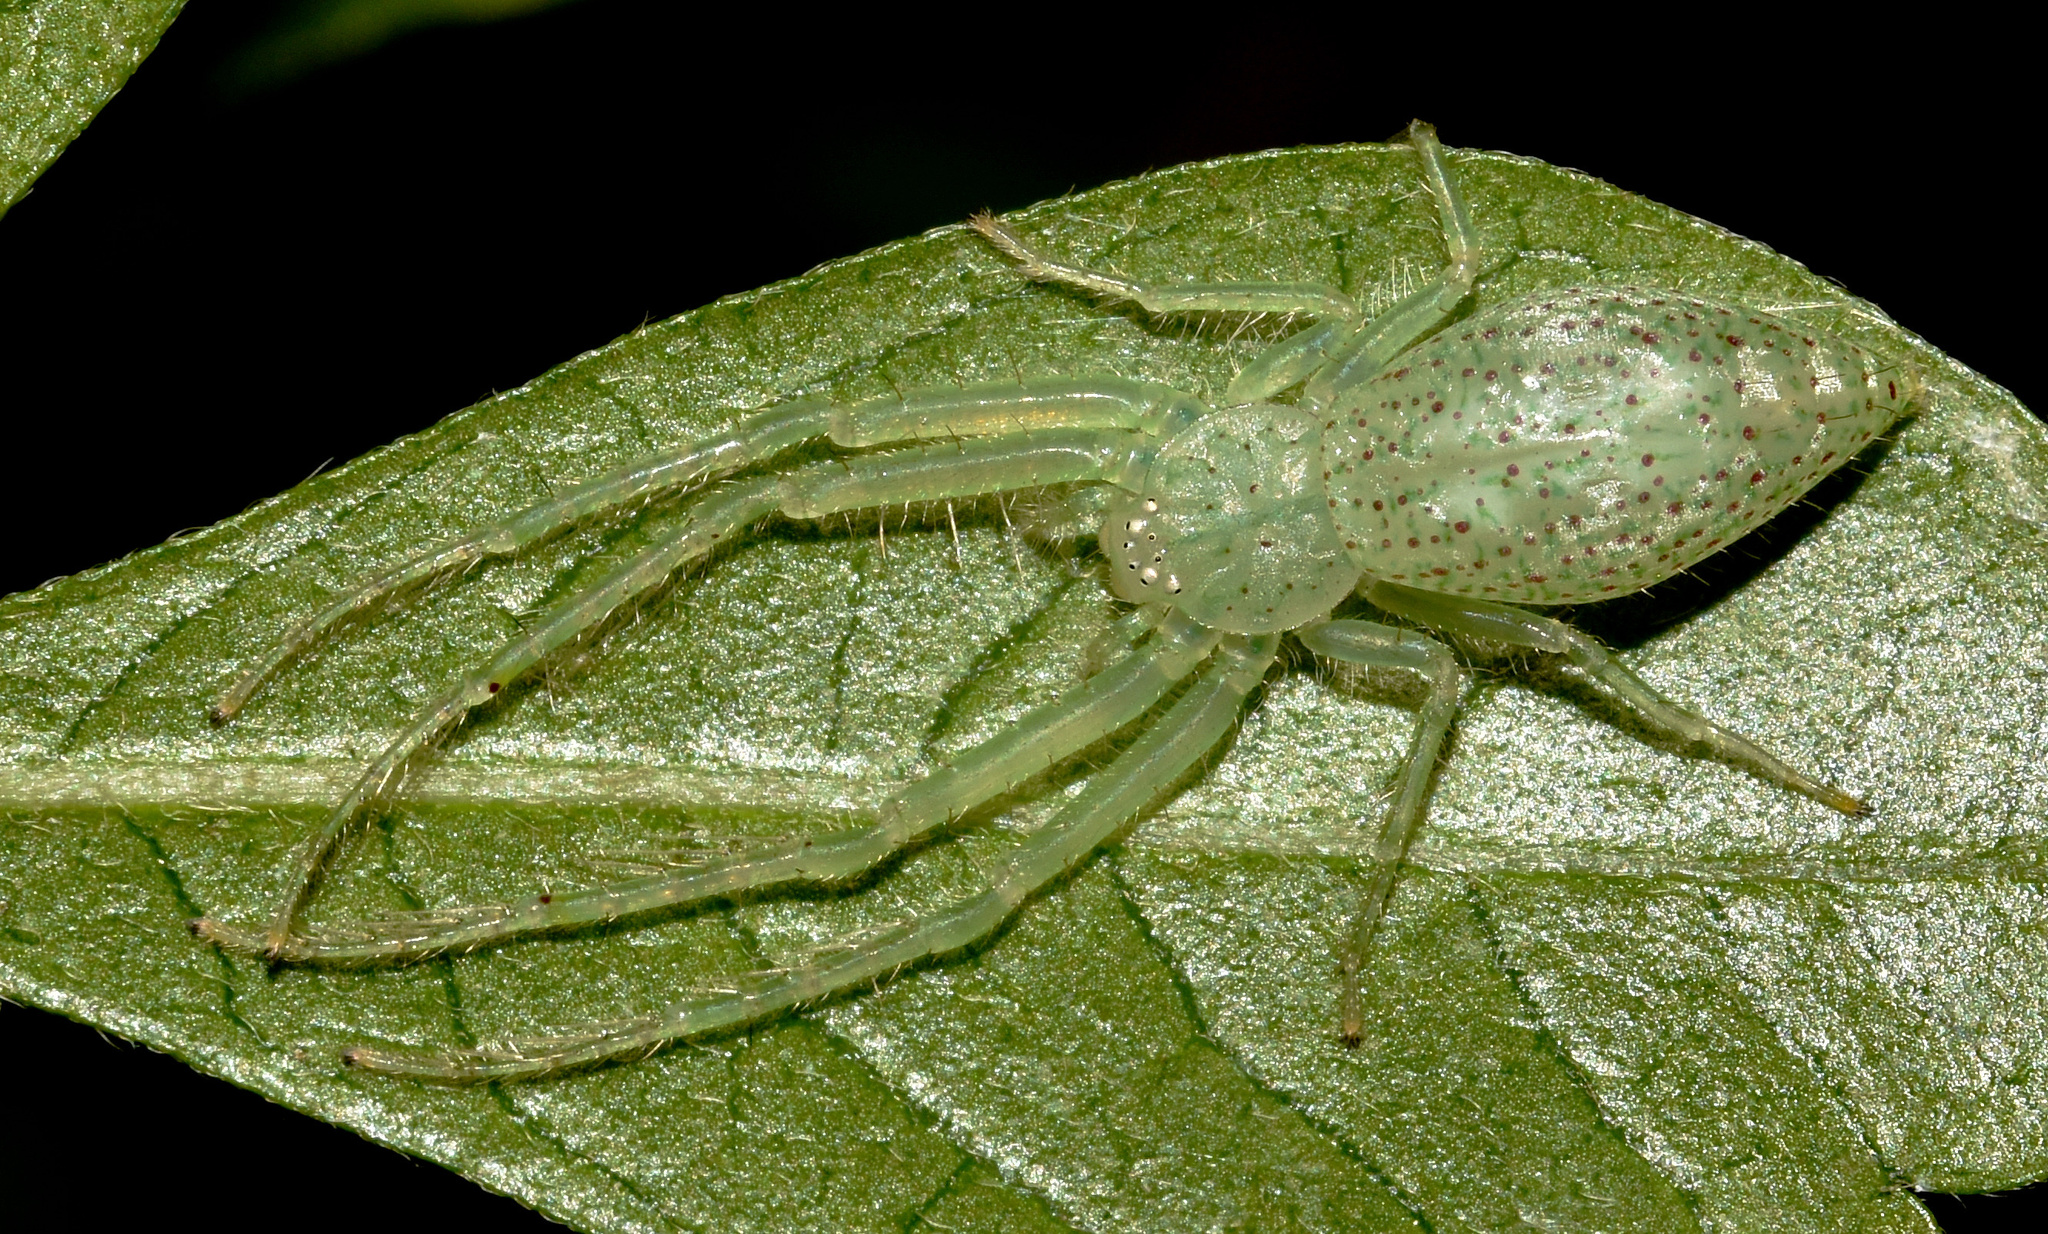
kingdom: Animalia
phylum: Arthropoda
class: Arachnida
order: Araneae
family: Thomisidae
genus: Oxytate
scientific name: Oxytate argenteooculata
